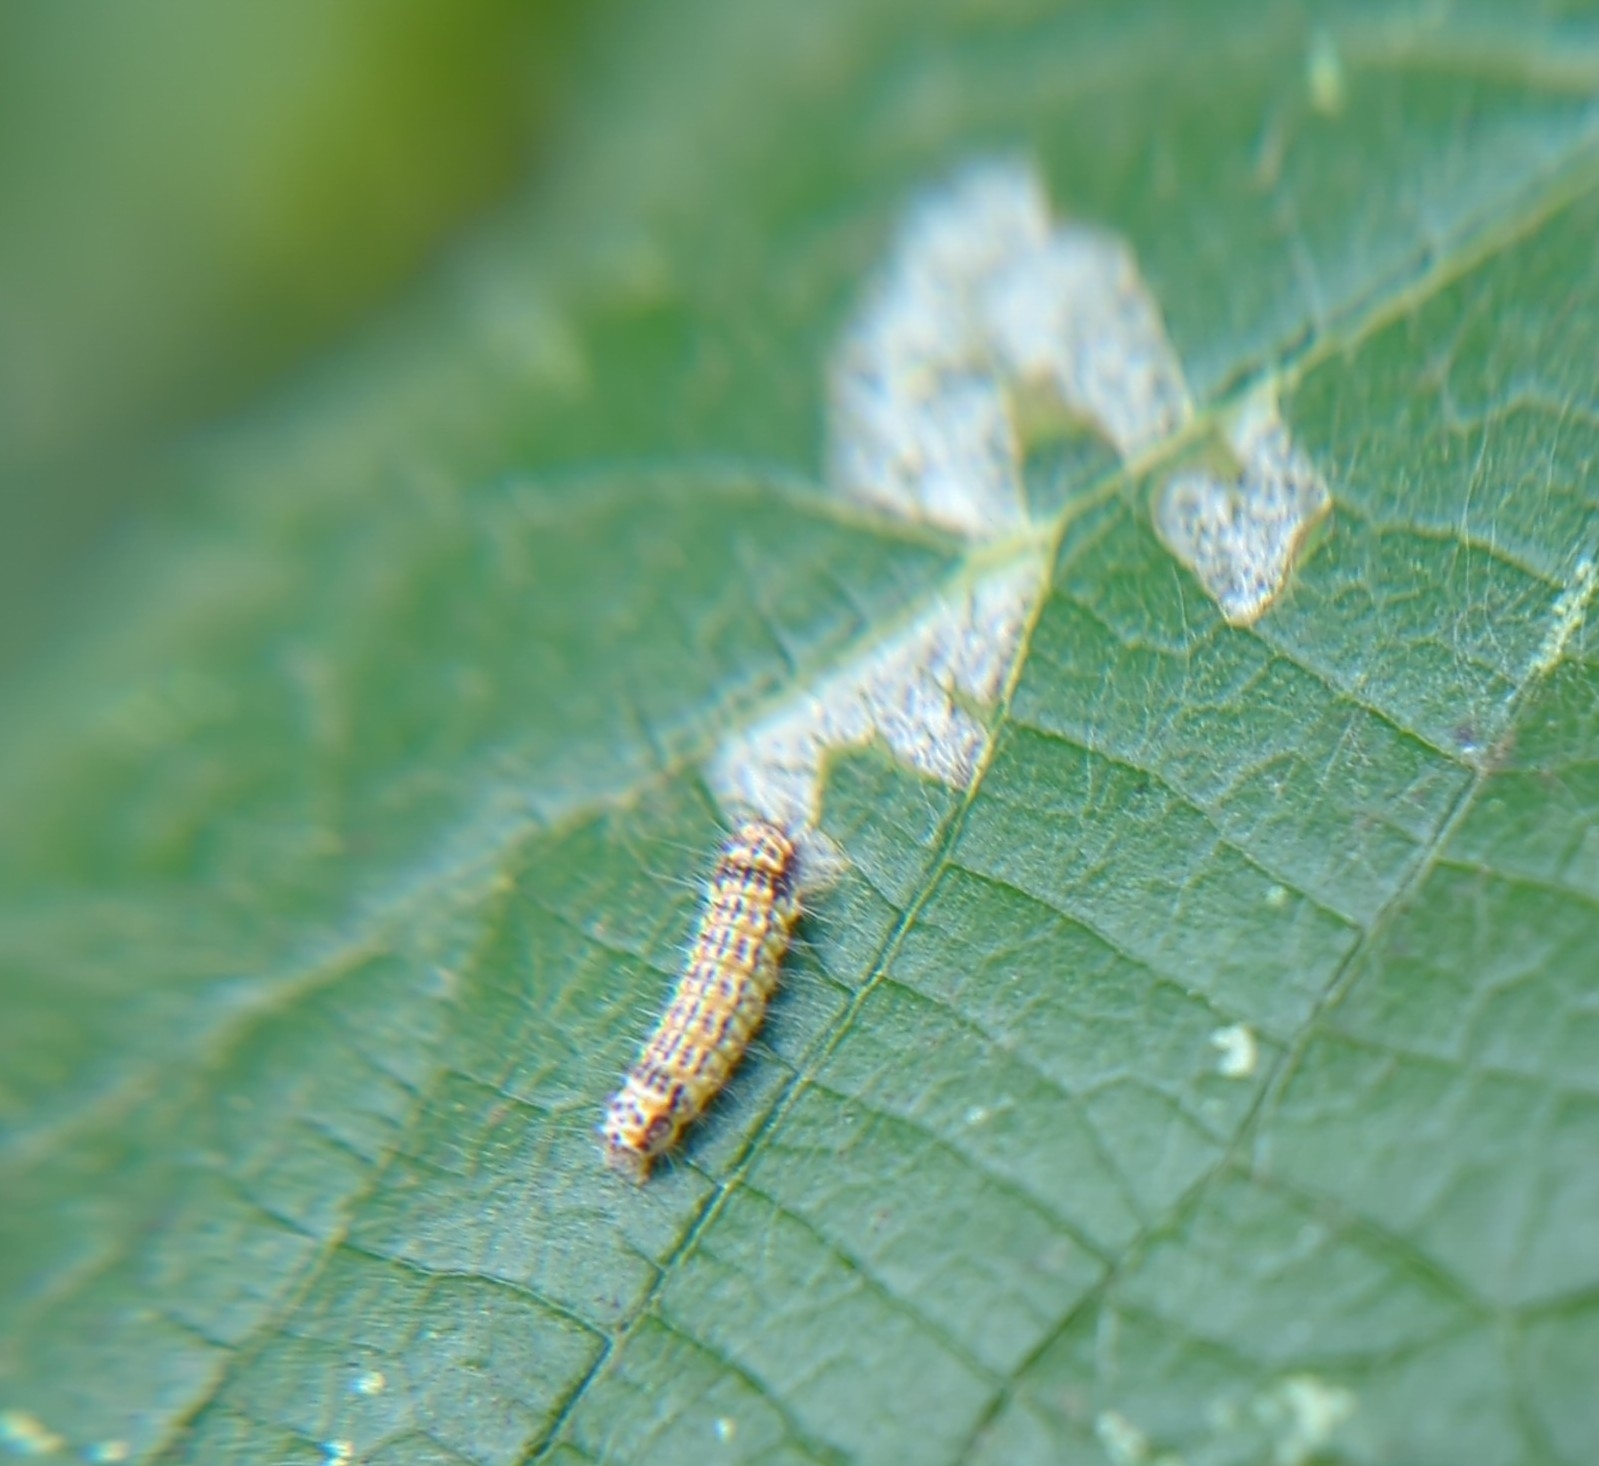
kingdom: Animalia
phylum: Arthropoda
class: Insecta
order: Lepidoptera
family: Zygaenidae
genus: Acoloithus
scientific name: Acoloithus falsarius
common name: Clemens' false skeletonizer
